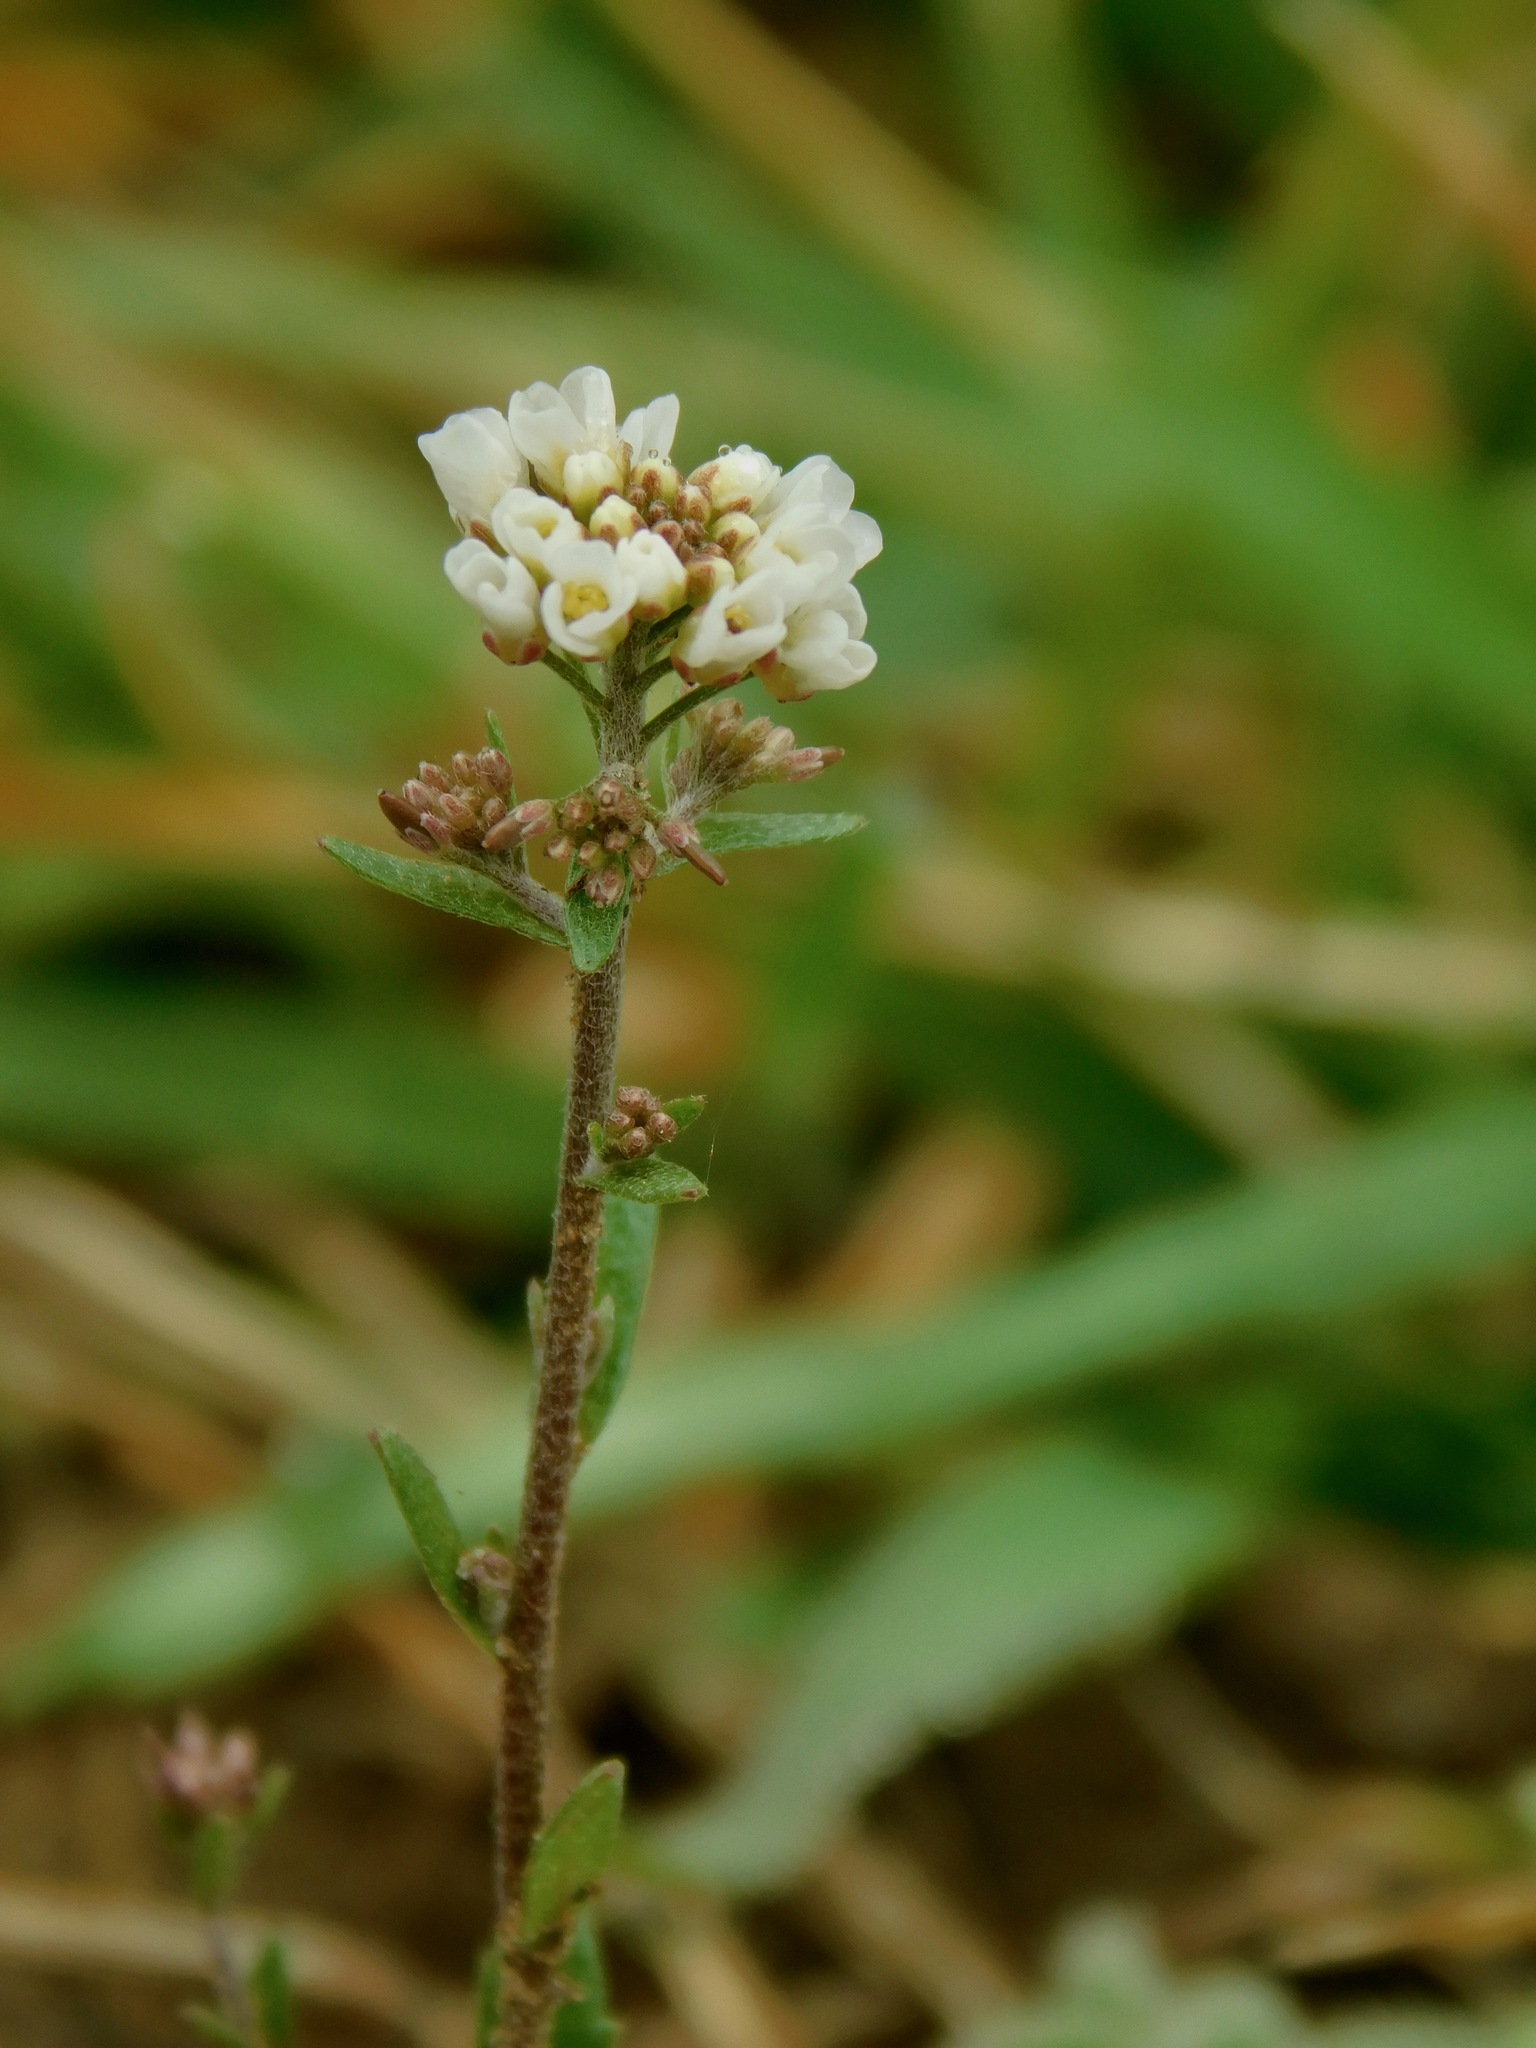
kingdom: Plantae
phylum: Tracheophyta
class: Magnoliopsida
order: Brassicales
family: Brassicaceae
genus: Abdra
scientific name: Abdra brachycarpa
